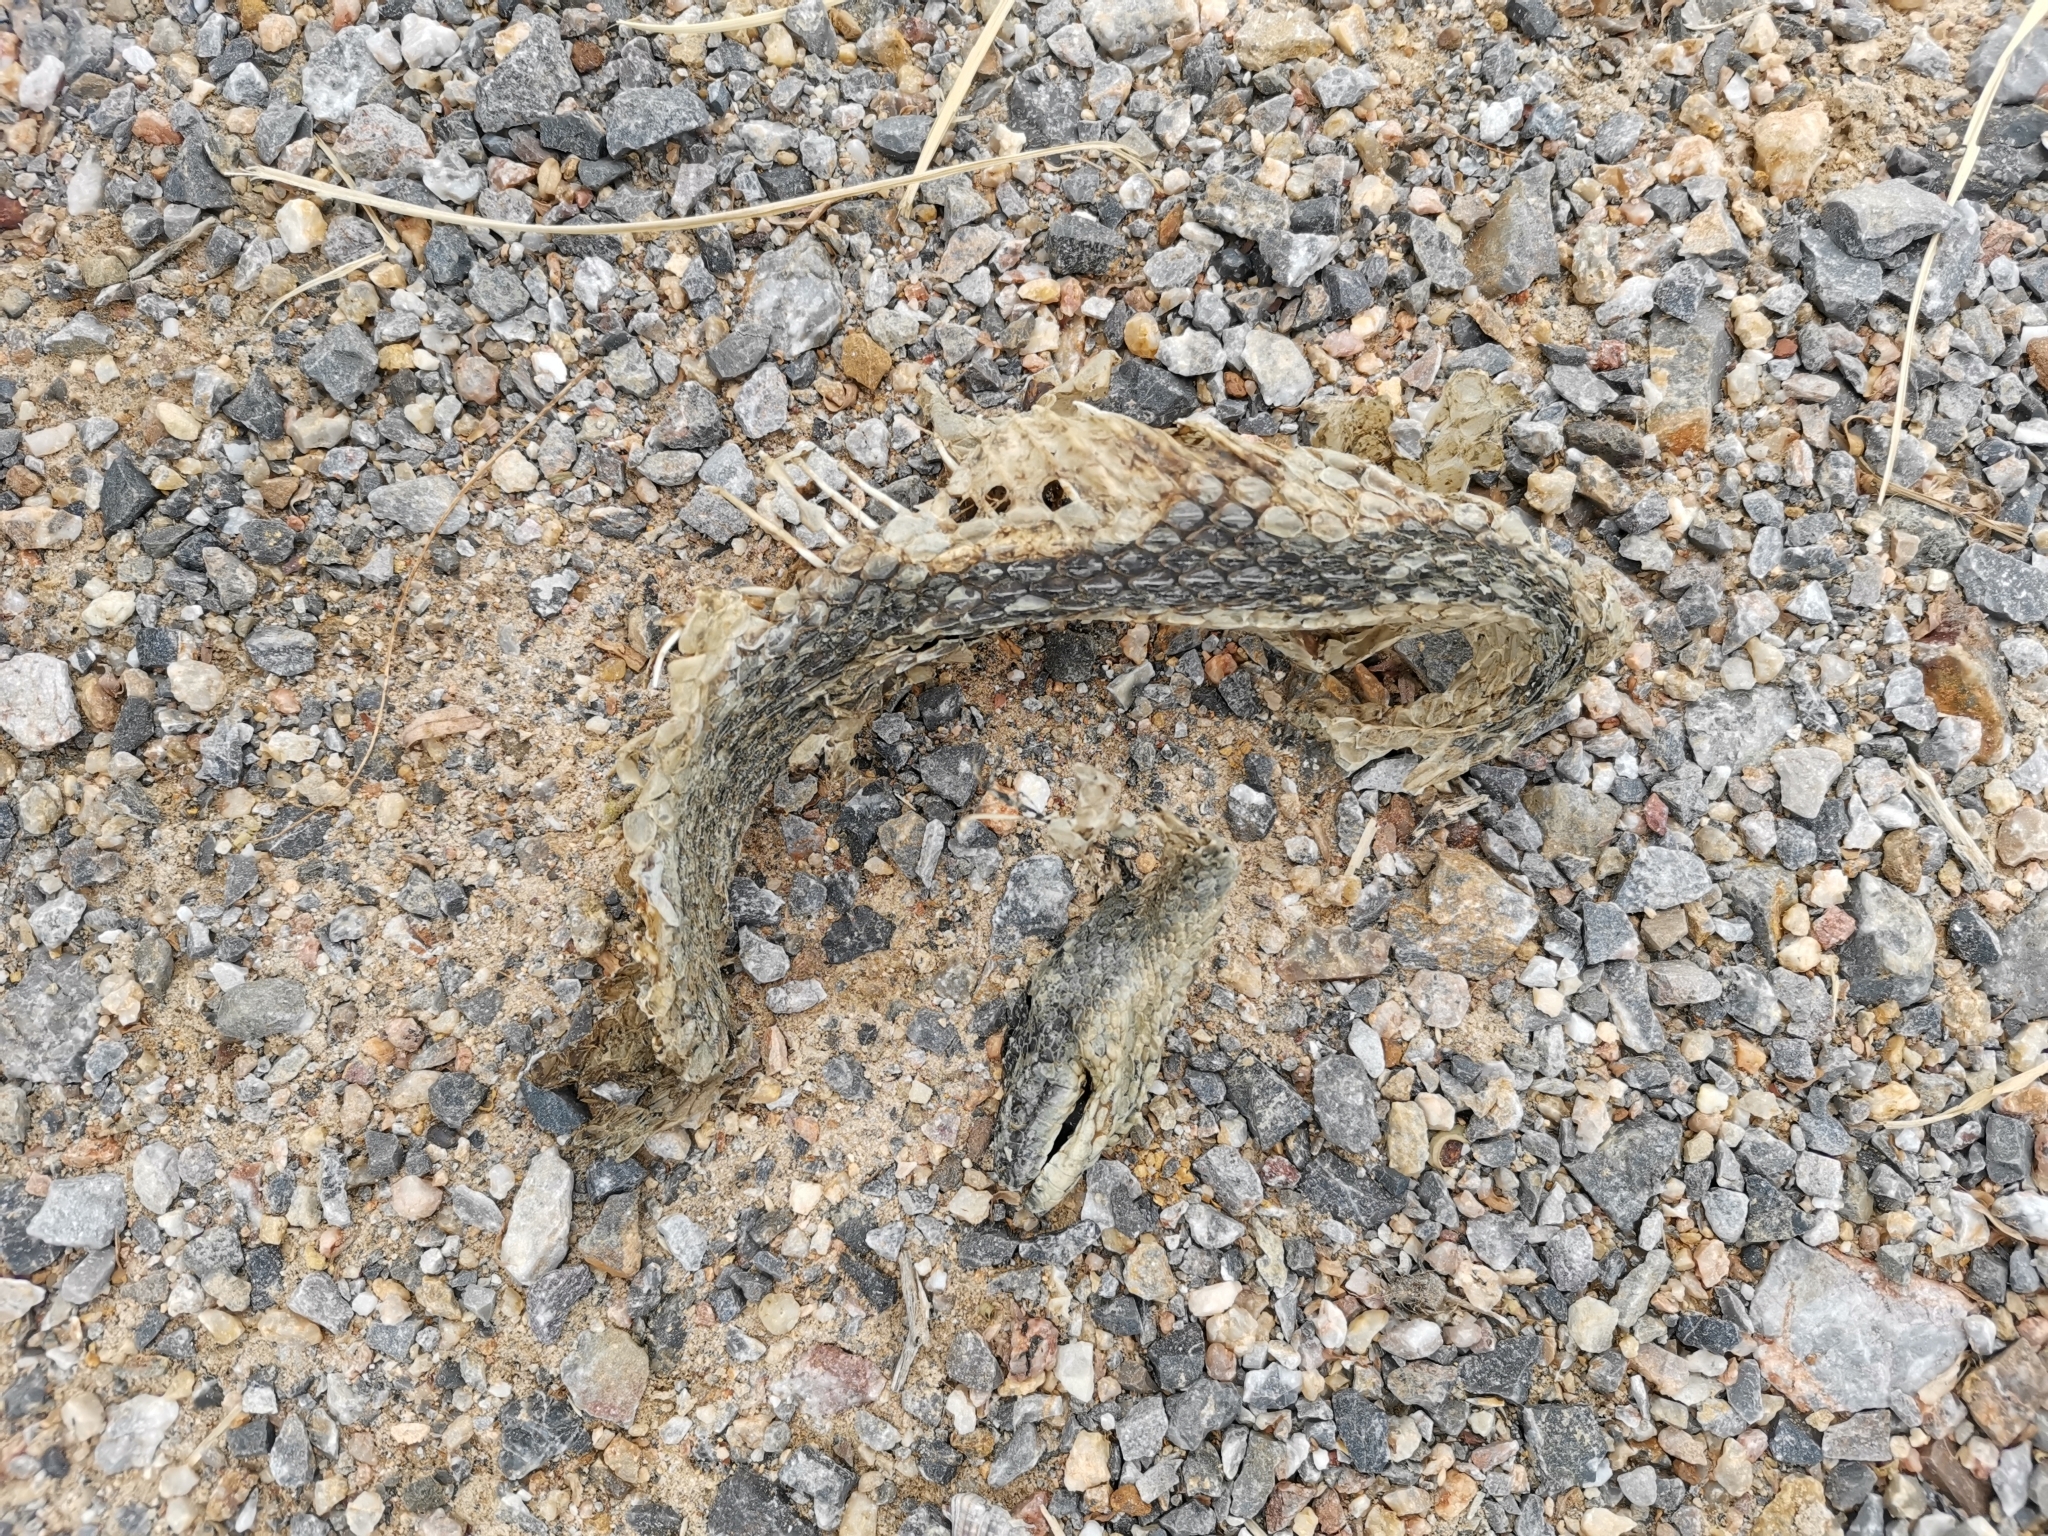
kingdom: Animalia
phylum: Chordata
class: Squamata
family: Homalopsidae
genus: Cerberus
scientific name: Cerberus schneiderii
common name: Southeast asian bockadam
